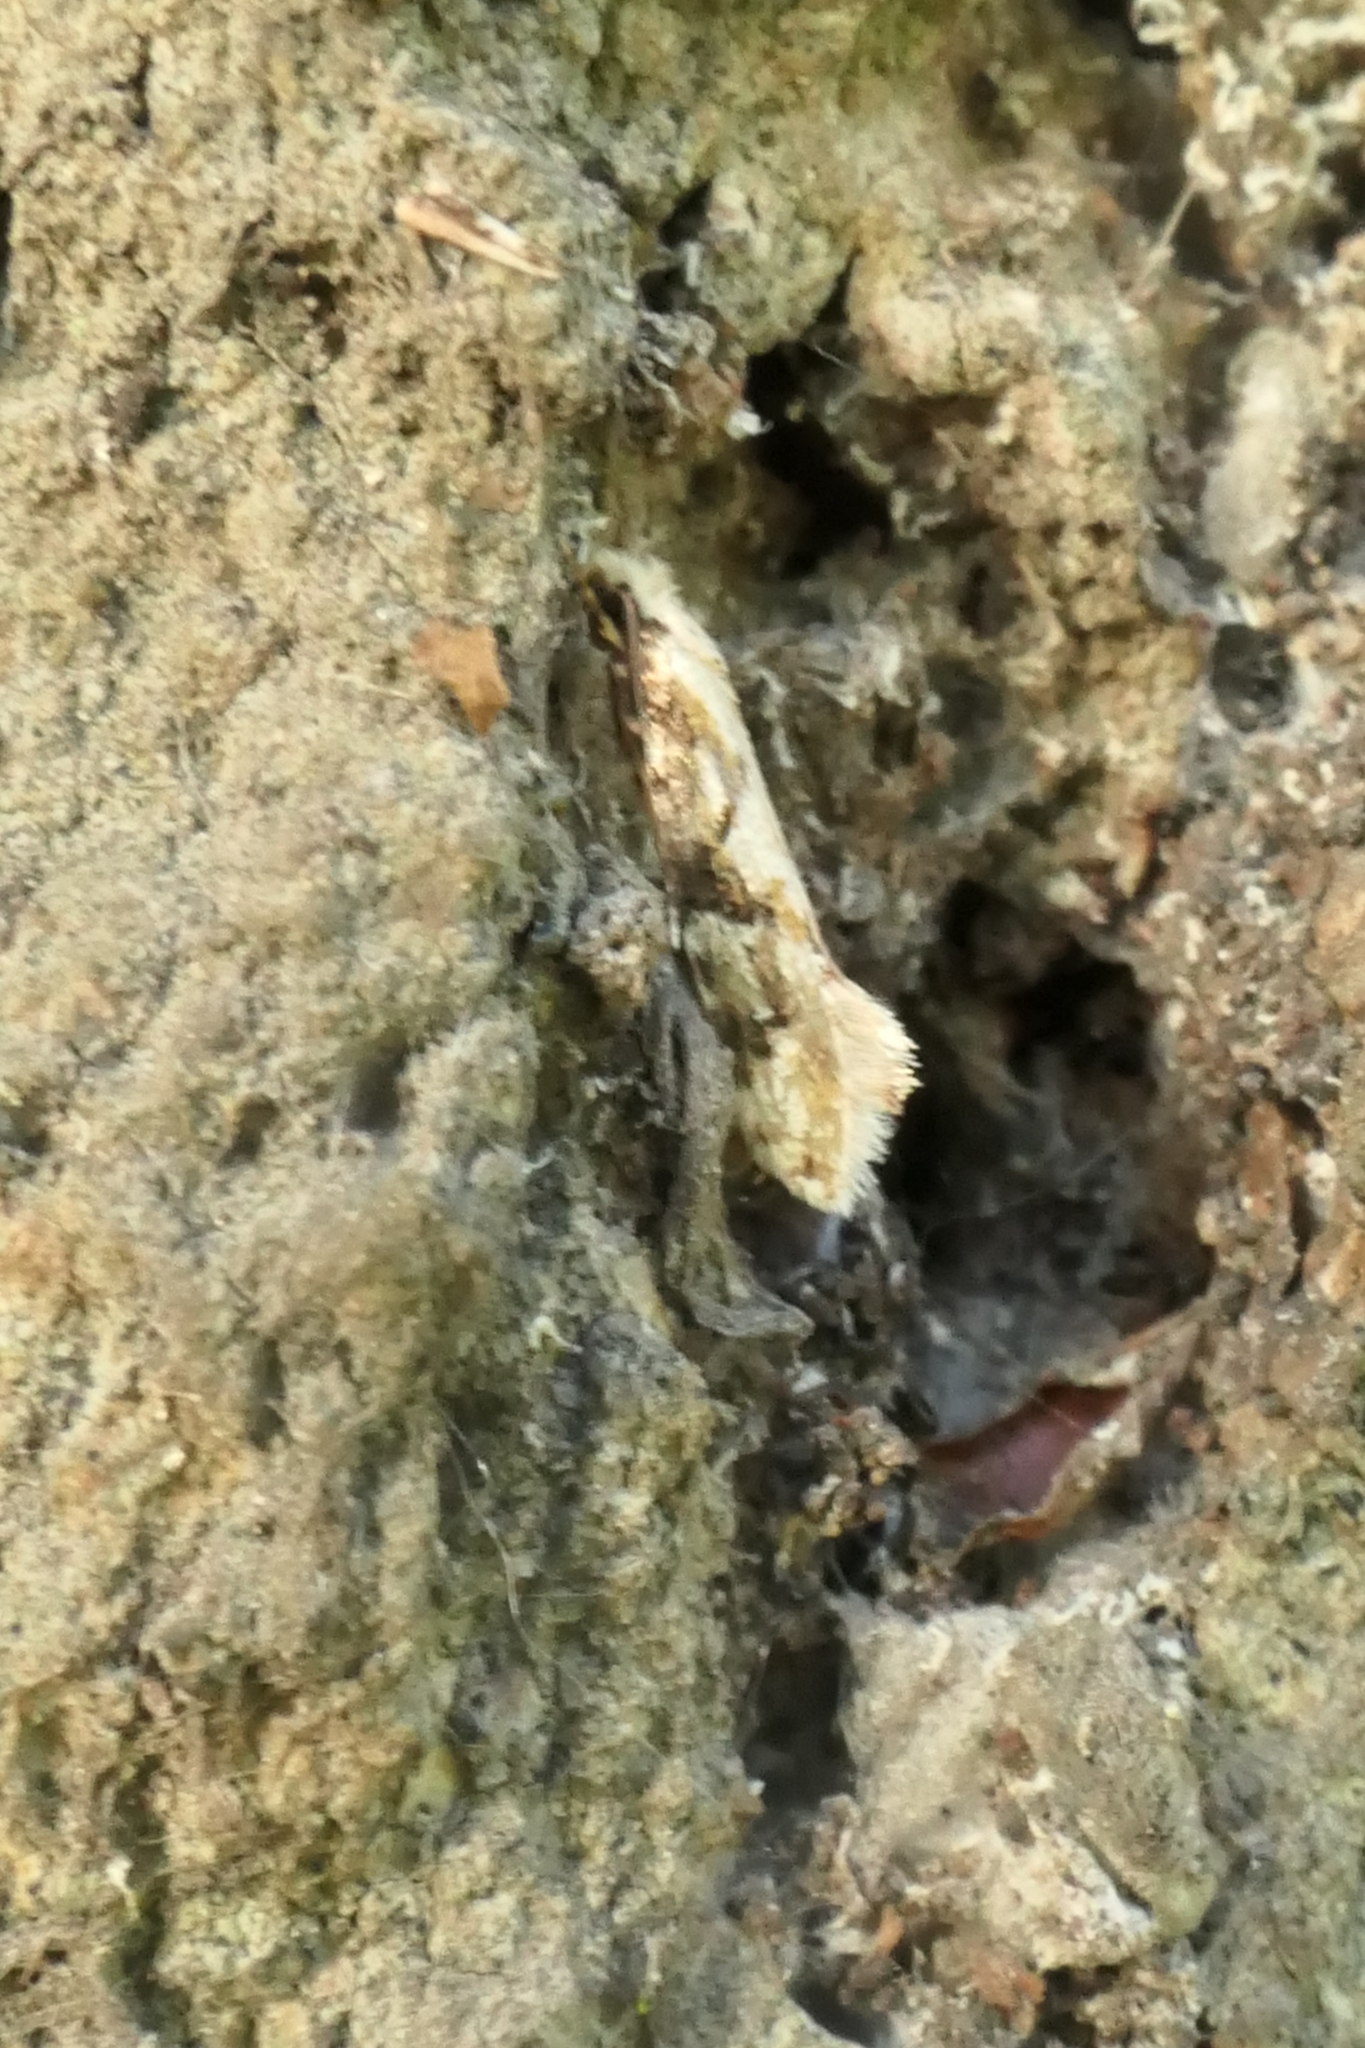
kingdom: Animalia
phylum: Arthropoda
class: Insecta
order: Lepidoptera
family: Tineidae
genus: Crypsitricha
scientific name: Crypsitricha mesotypa
